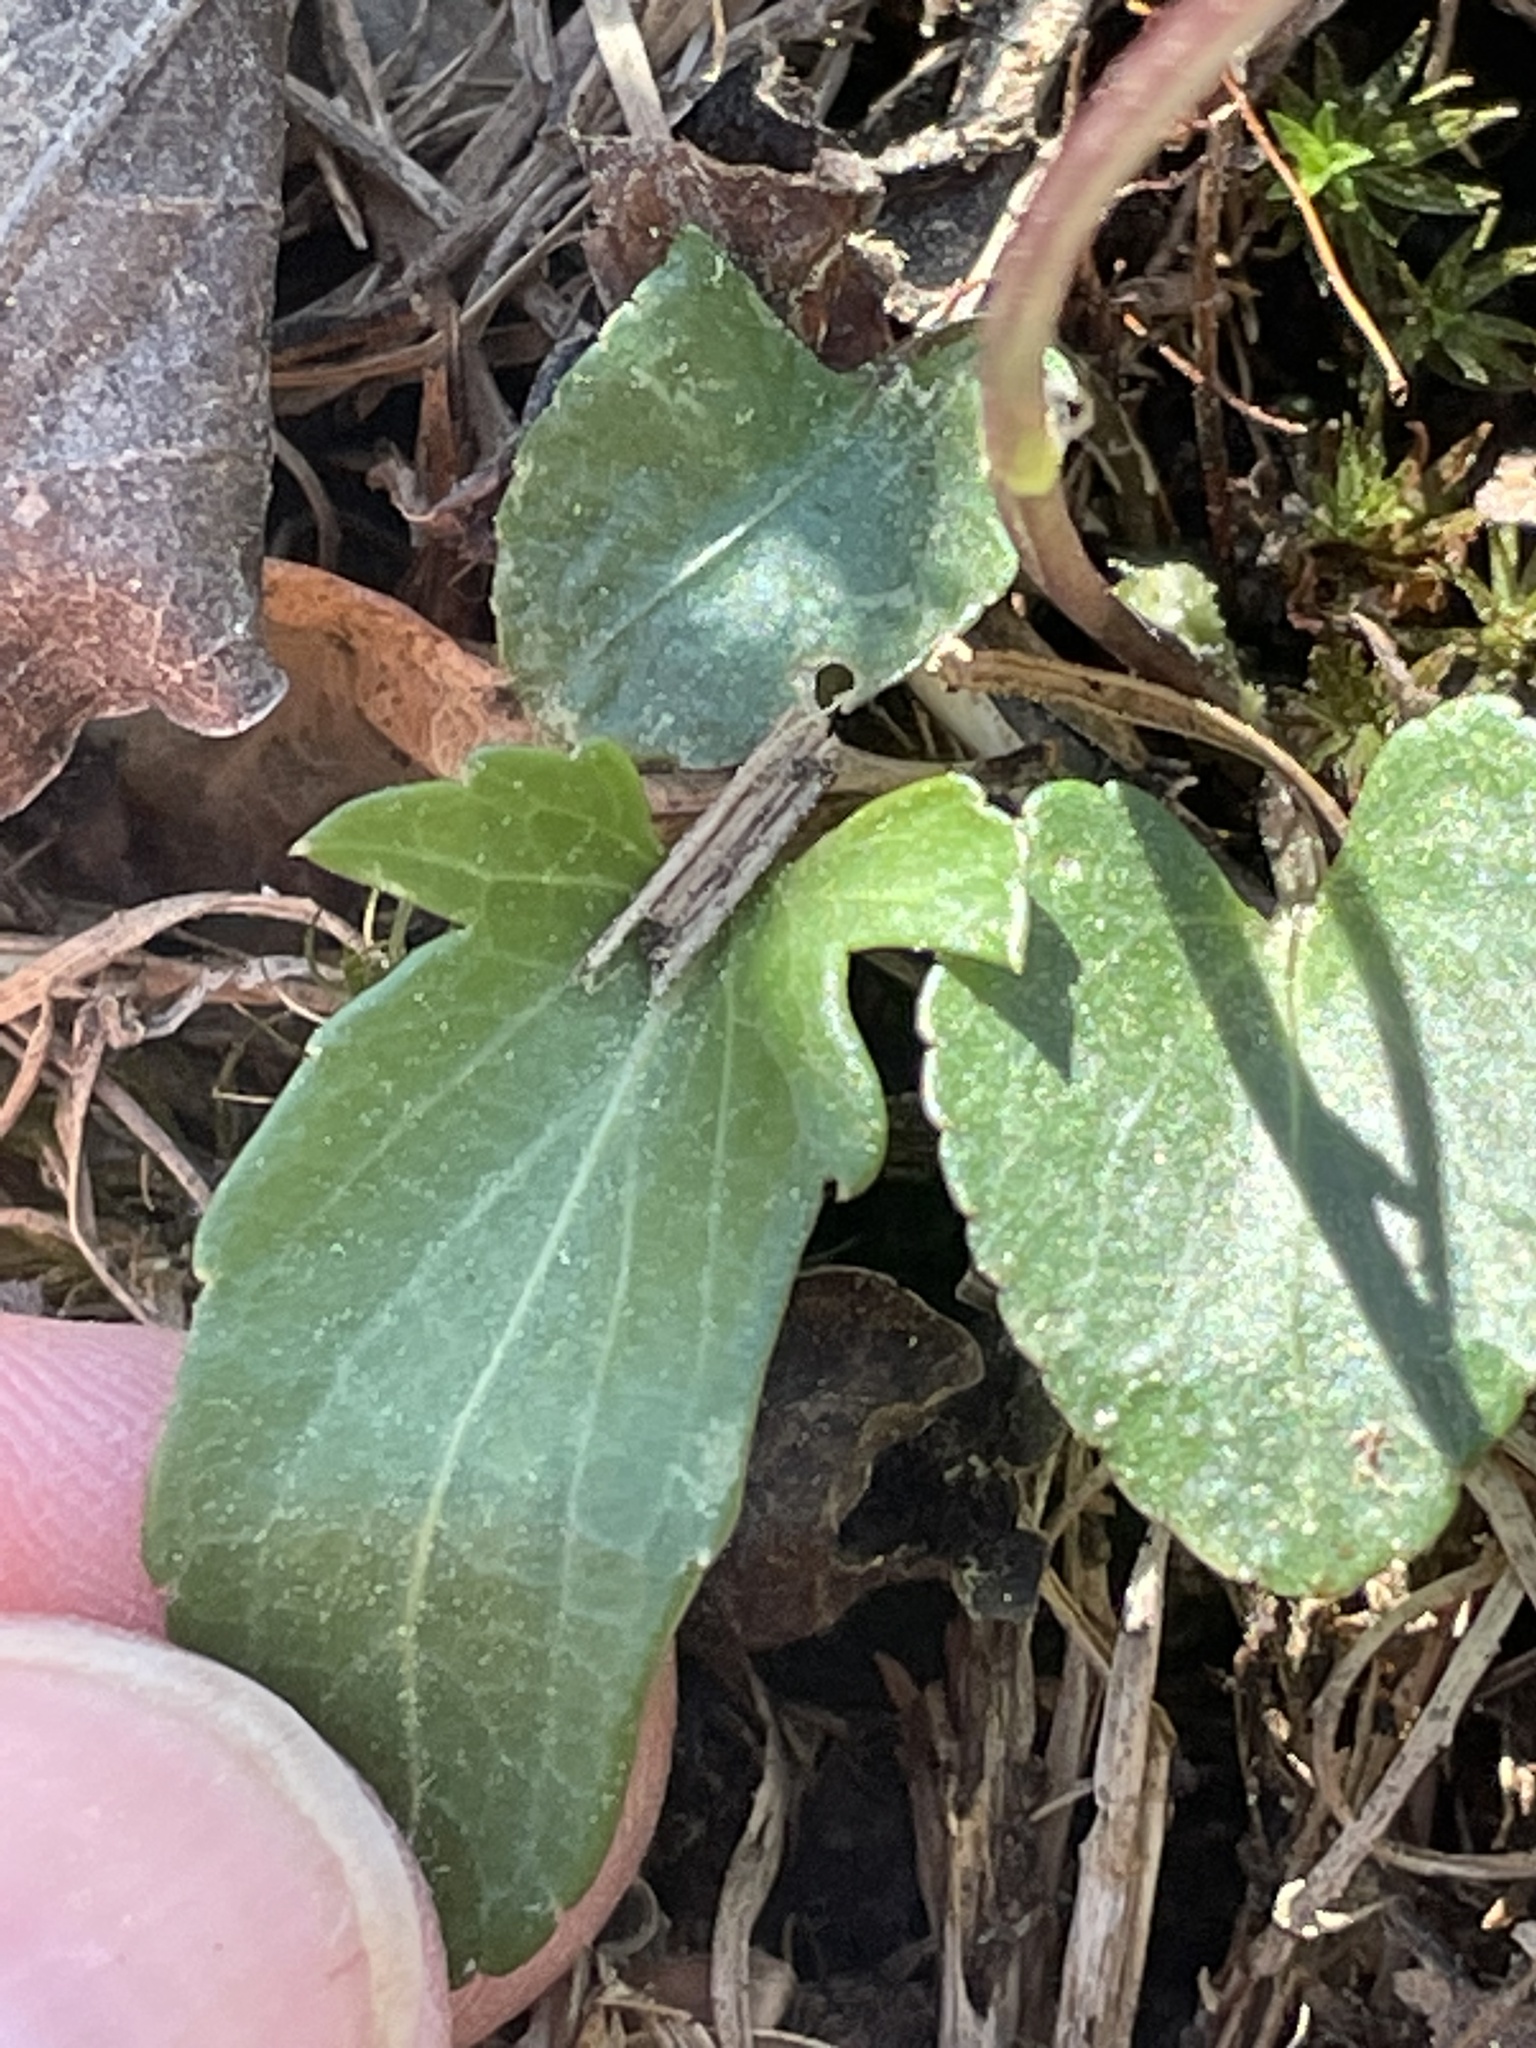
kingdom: Plantae
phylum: Tracheophyta
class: Magnoliopsida
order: Malpighiales
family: Violaceae
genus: Viola
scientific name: Viola emarginata
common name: Triangle-leaved violet
